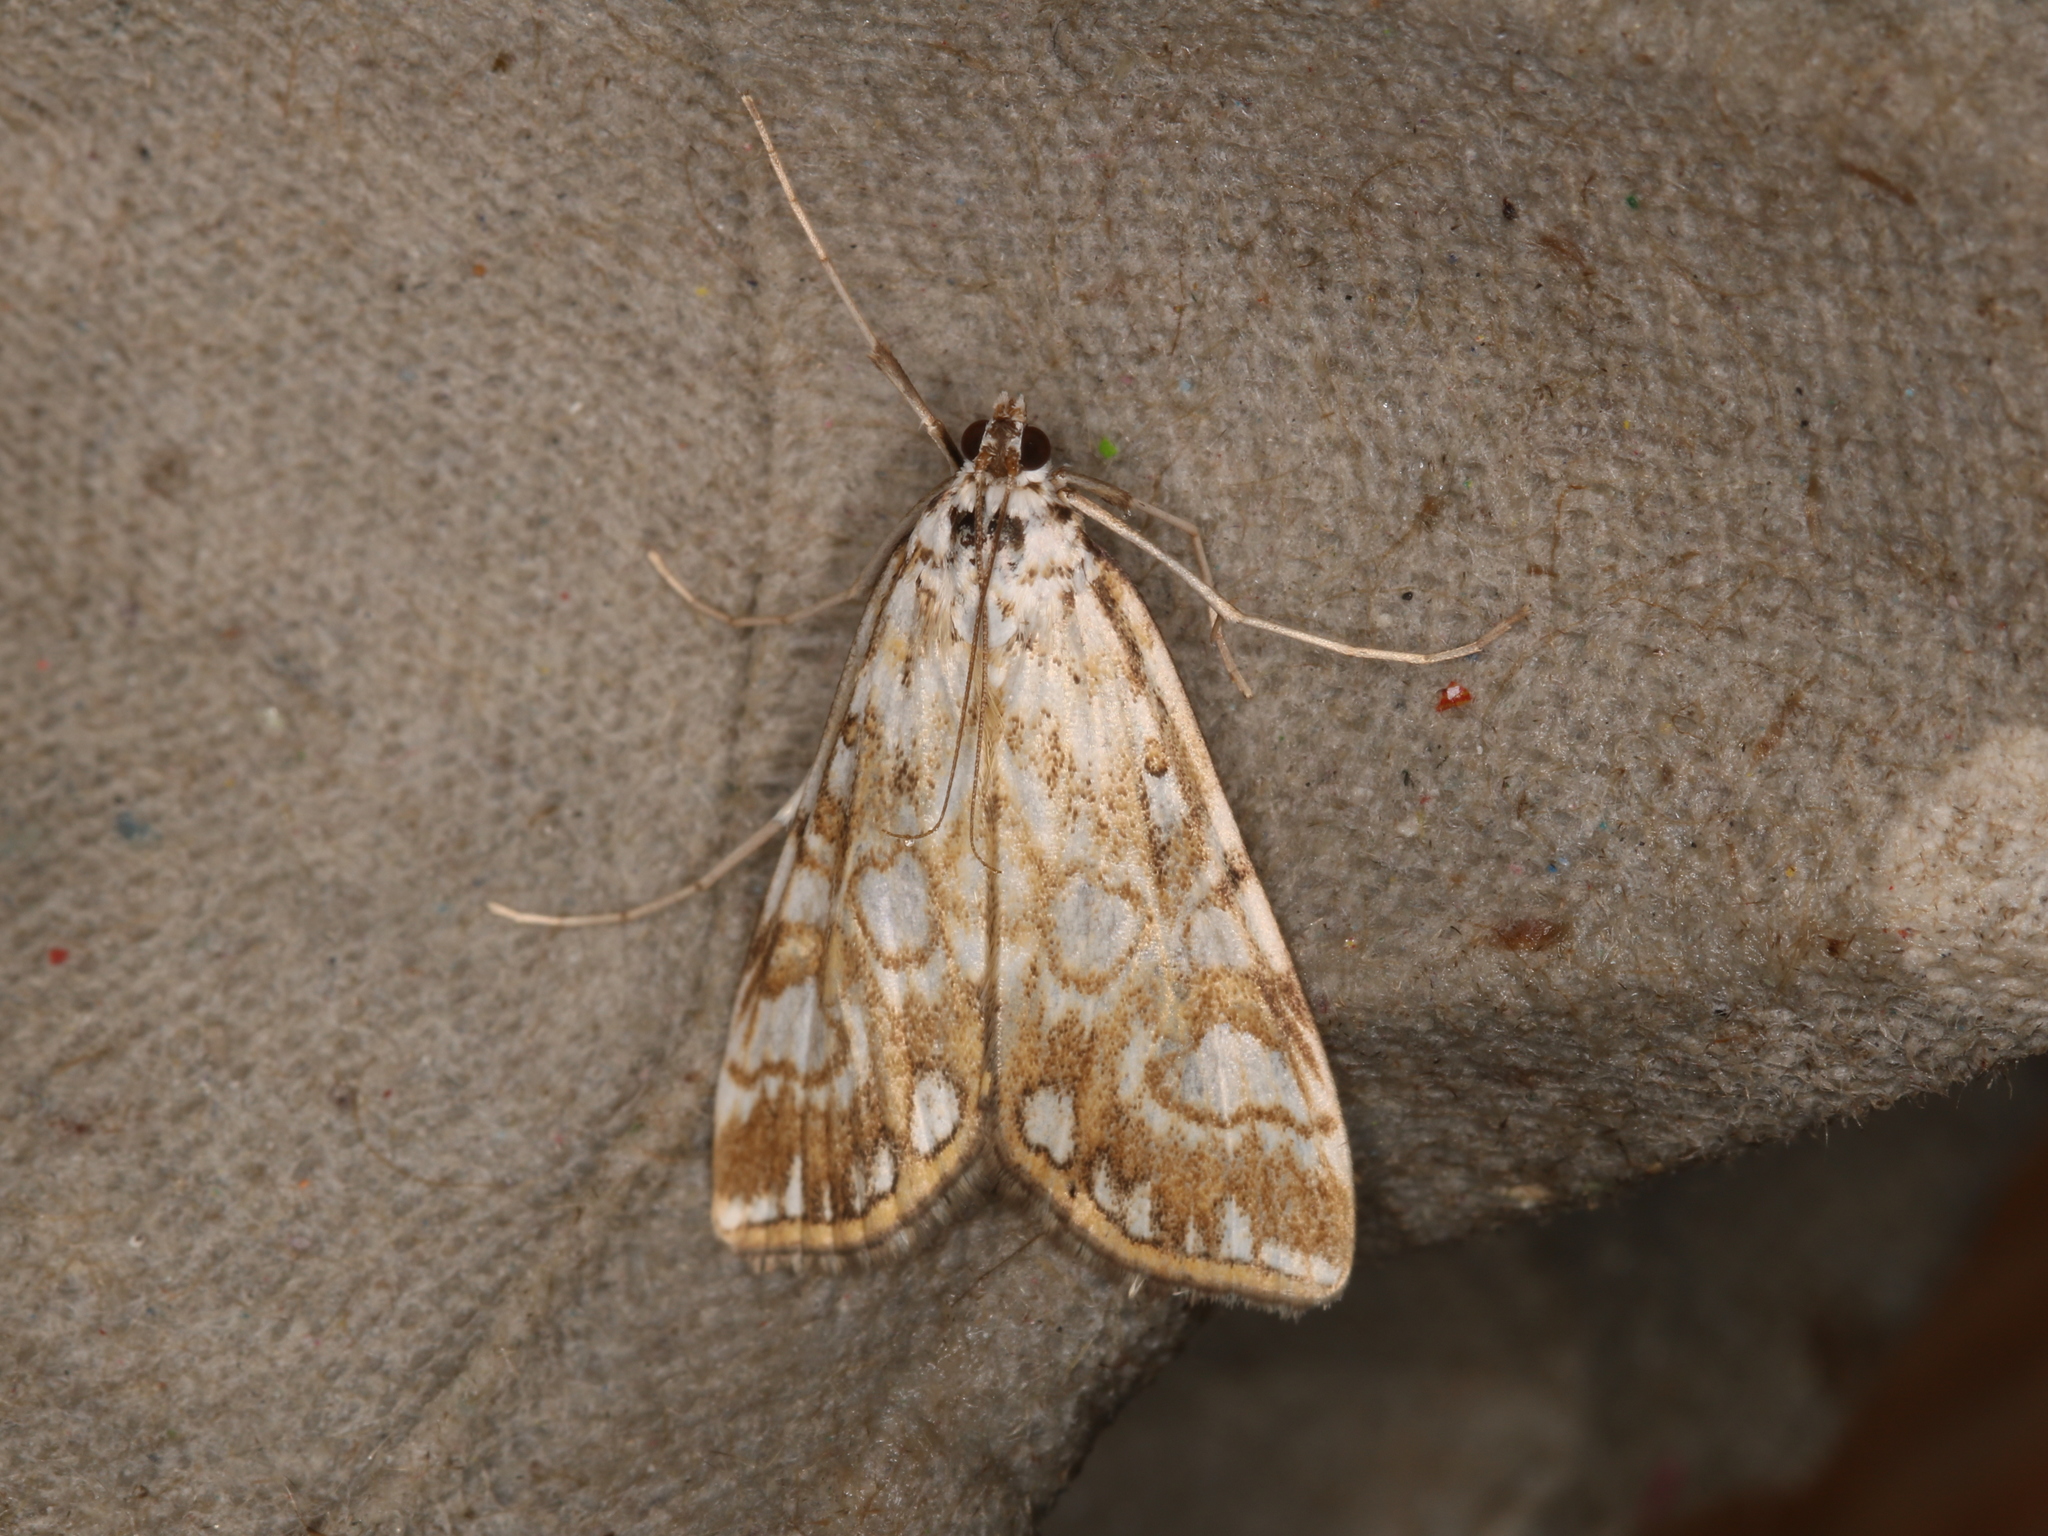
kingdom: Animalia
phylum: Arthropoda
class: Insecta
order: Lepidoptera
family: Crambidae
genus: Elophila
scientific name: Elophila nymphaeata
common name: Brown china-mark
